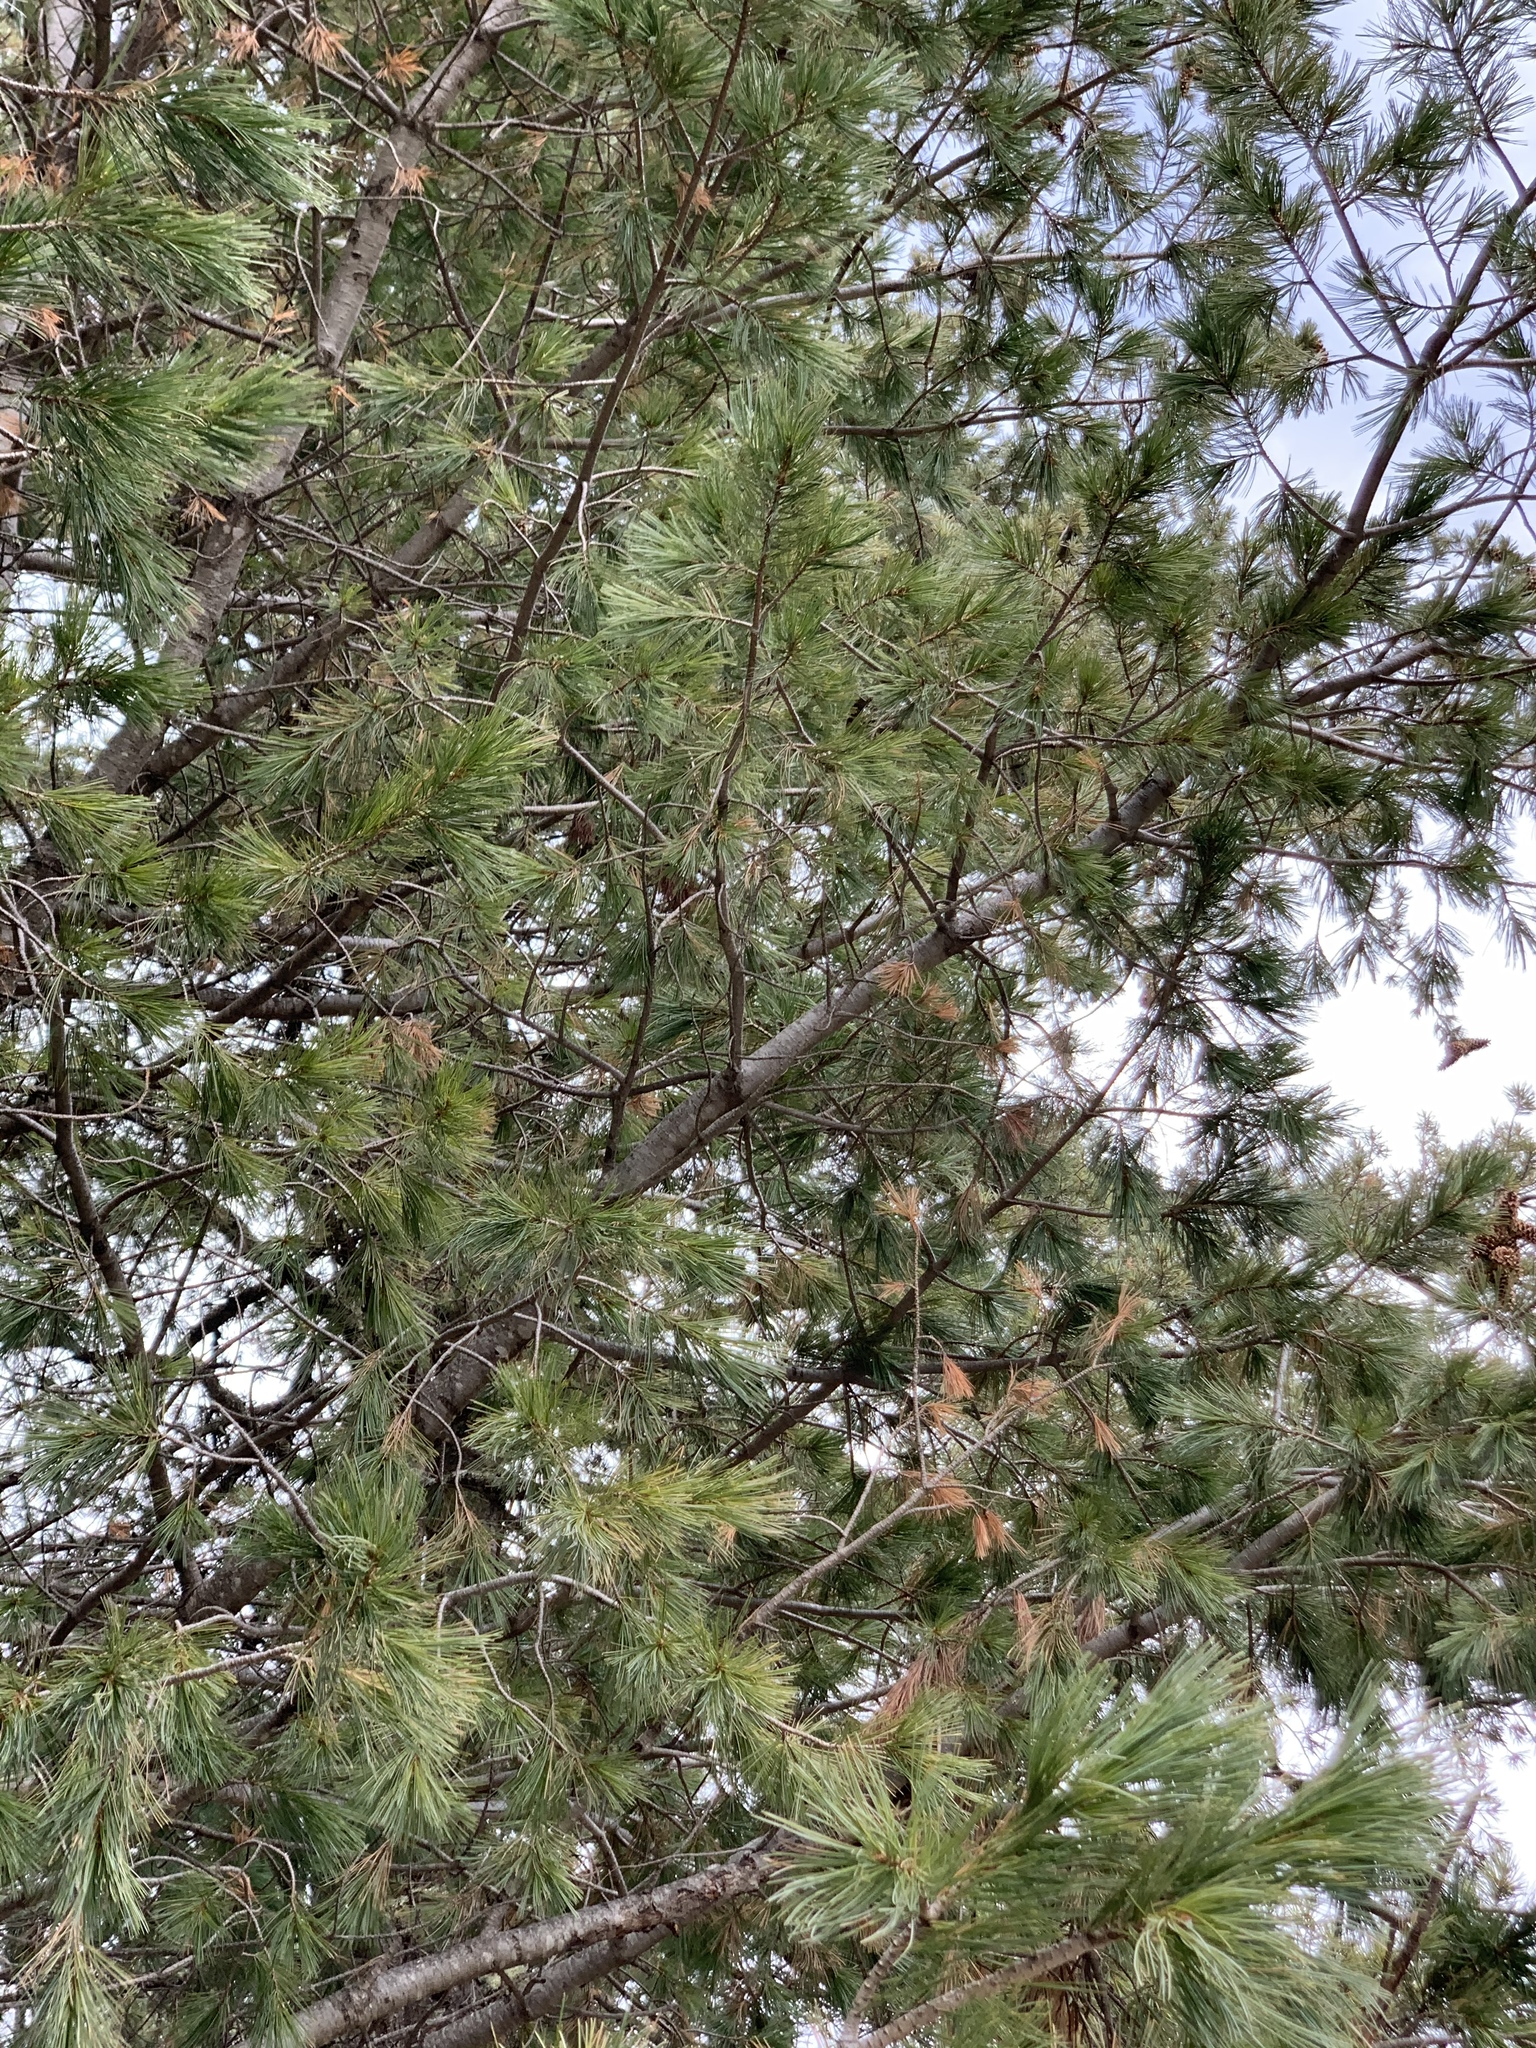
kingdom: Plantae
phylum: Tracheophyta
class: Pinopsida
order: Pinales
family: Pinaceae
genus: Pinus
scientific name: Pinus strobiformis
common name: Southwestern white pine
